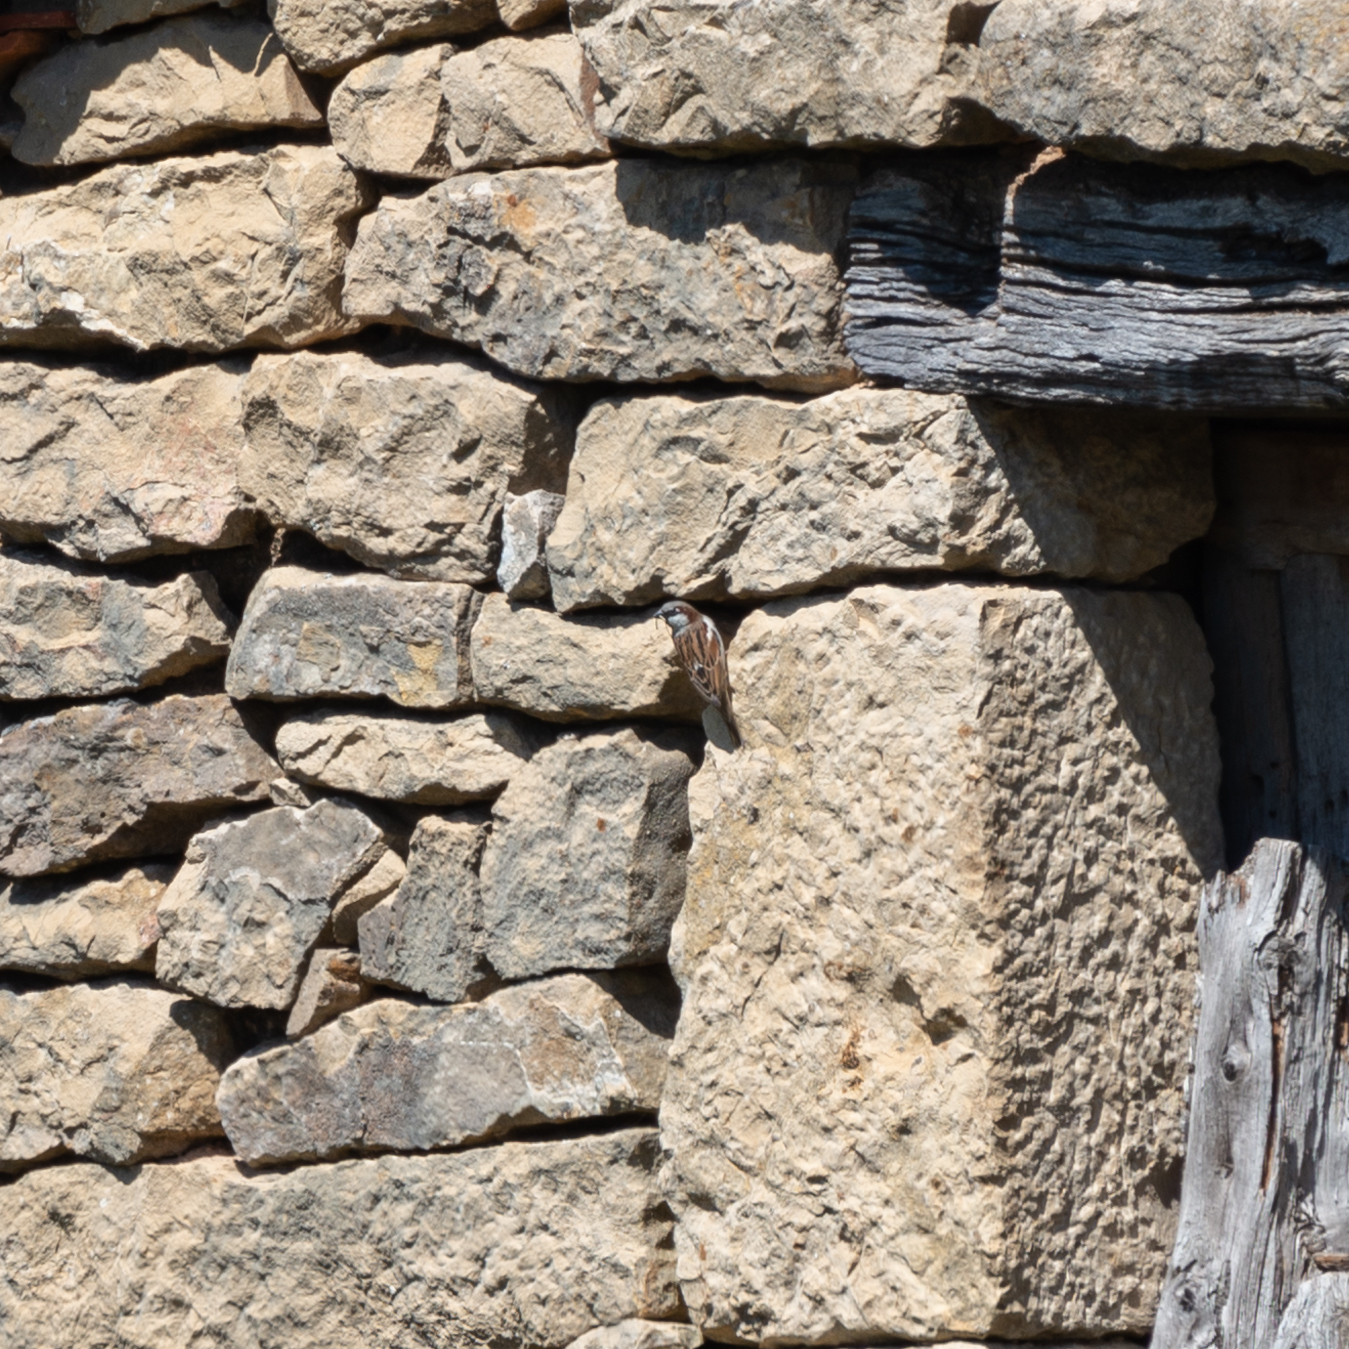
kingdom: Animalia
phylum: Chordata
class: Aves
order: Passeriformes
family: Passeridae
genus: Passer
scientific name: Passer domesticus
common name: House sparrow
